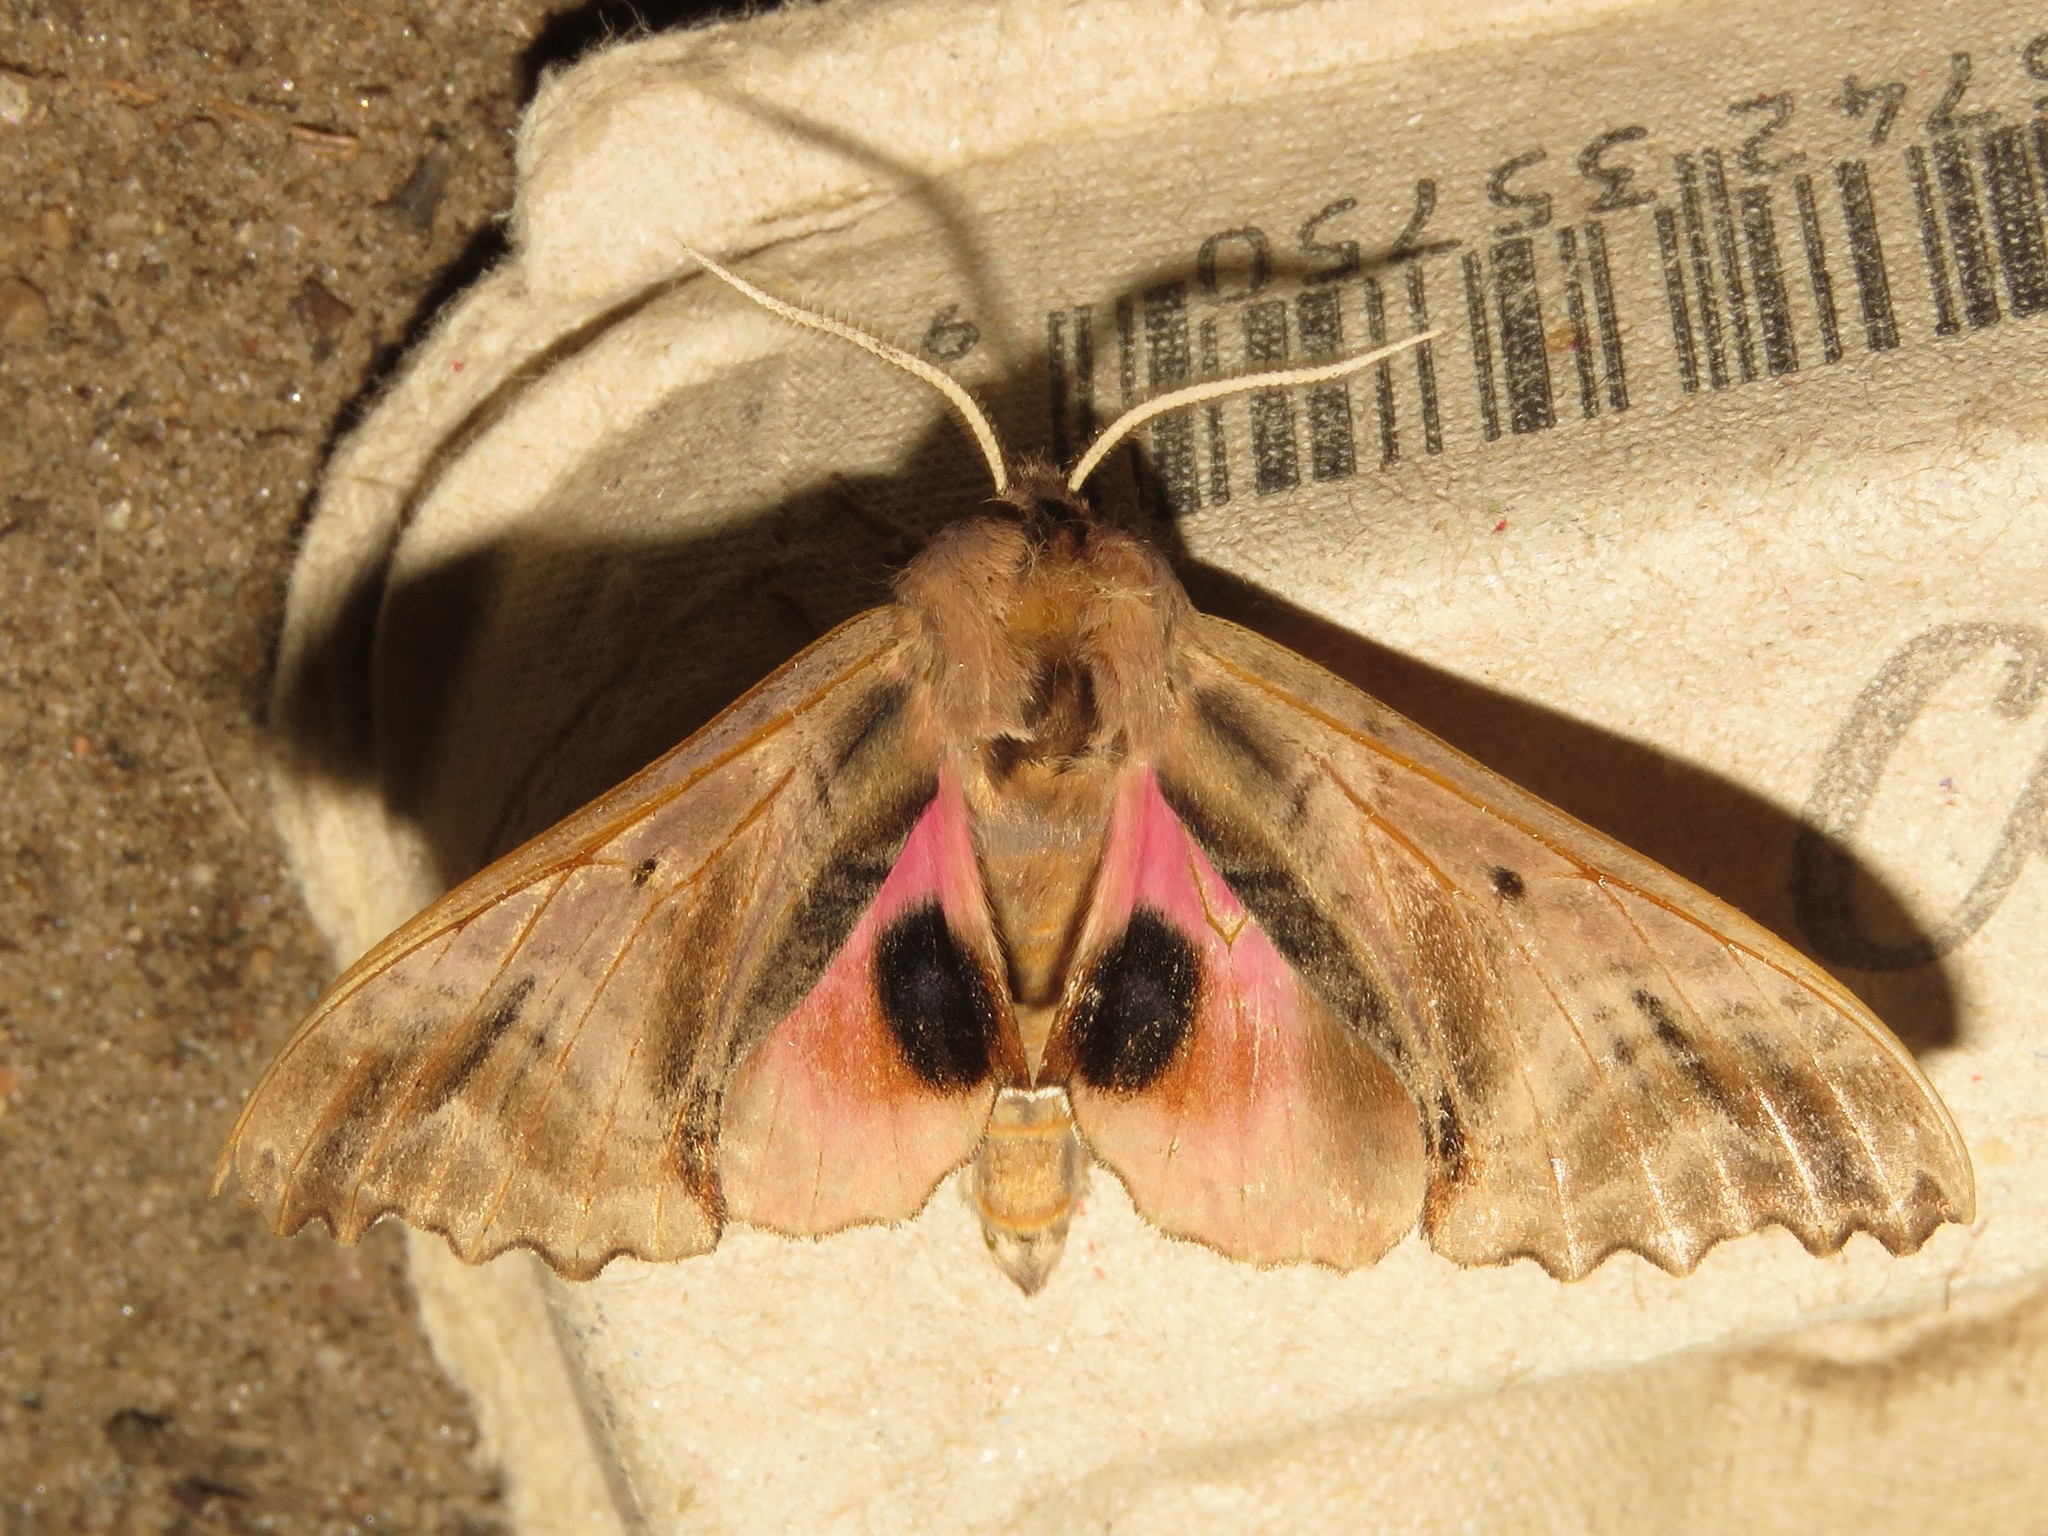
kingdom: Animalia
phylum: Arthropoda
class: Insecta
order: Lepidoptera
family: Sphingidae
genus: Paonias
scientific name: Paonias excaecata
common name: Blind-eyed sphinx
